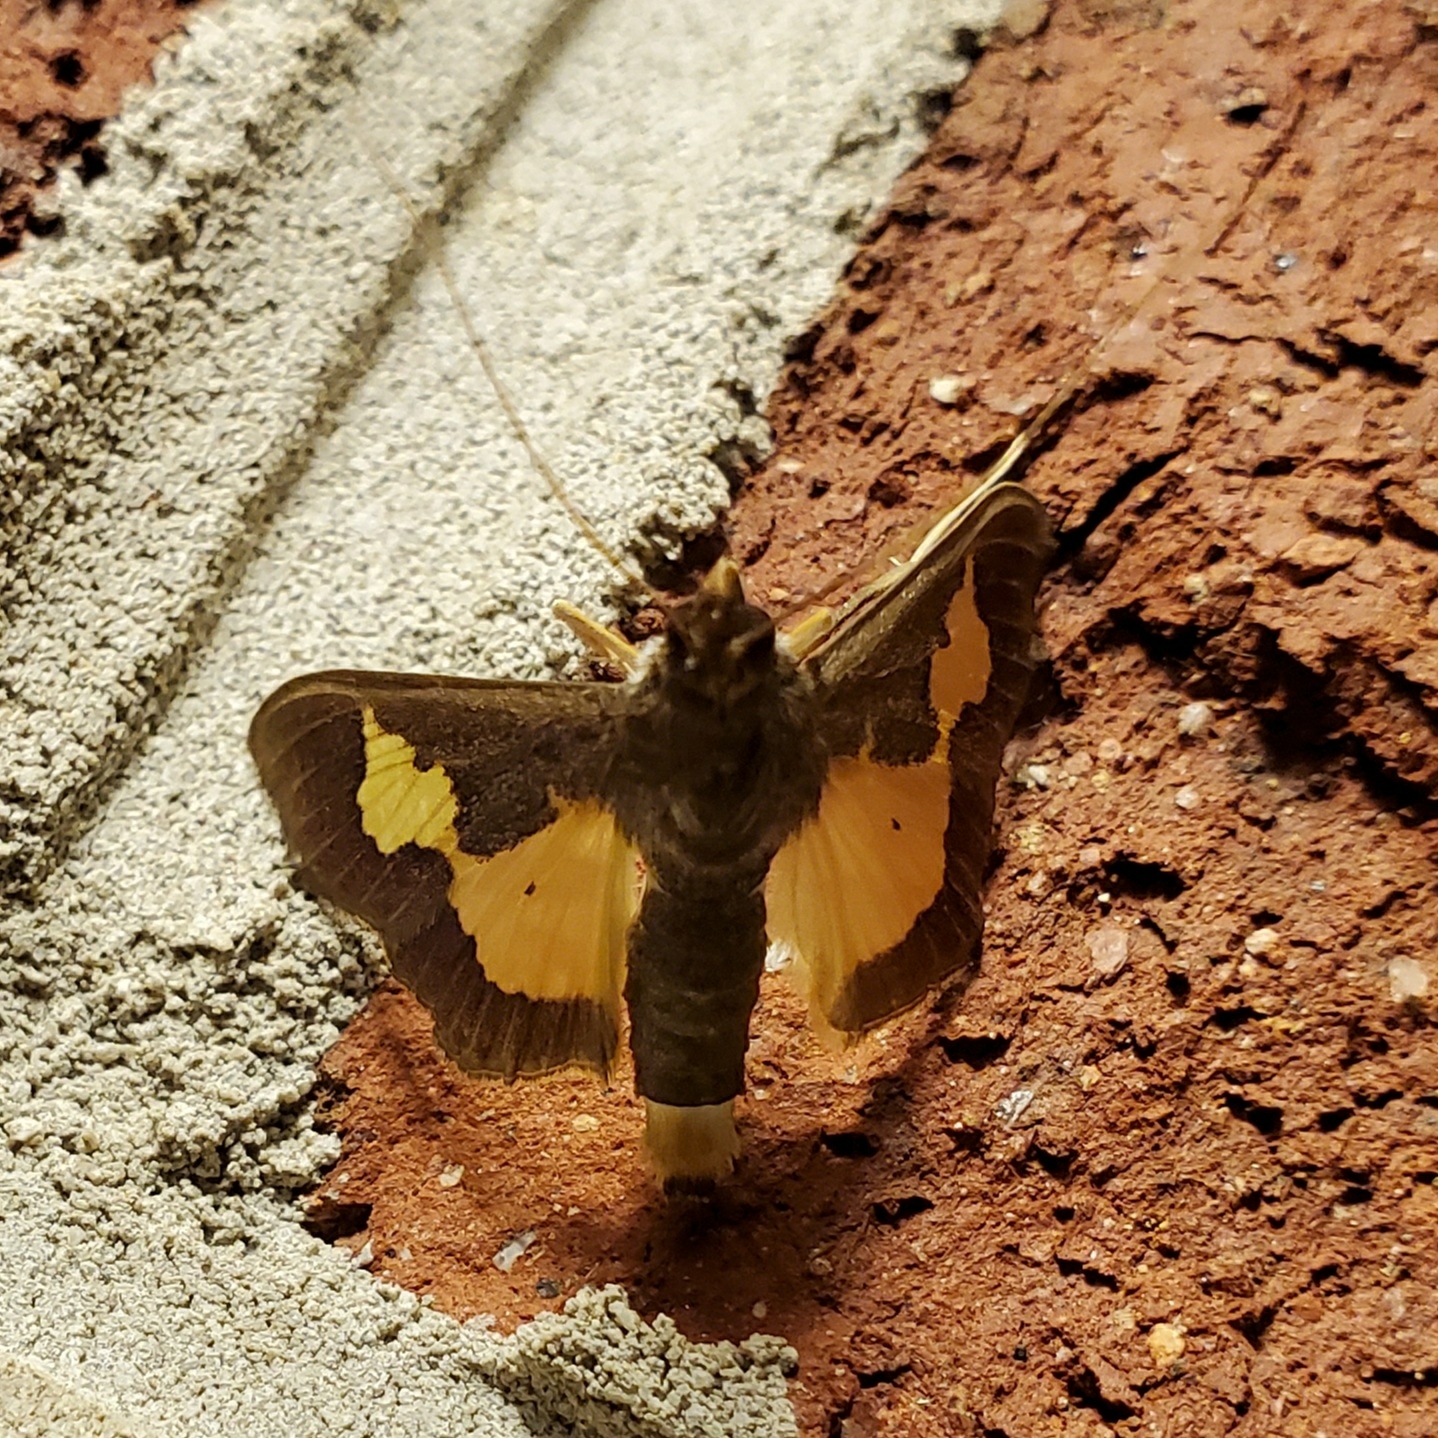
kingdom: Animalia
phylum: Arthropoda
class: Insecta
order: Lepidoptera
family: Crambidae
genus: Cryptographis
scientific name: Cryptographis nitidalis
